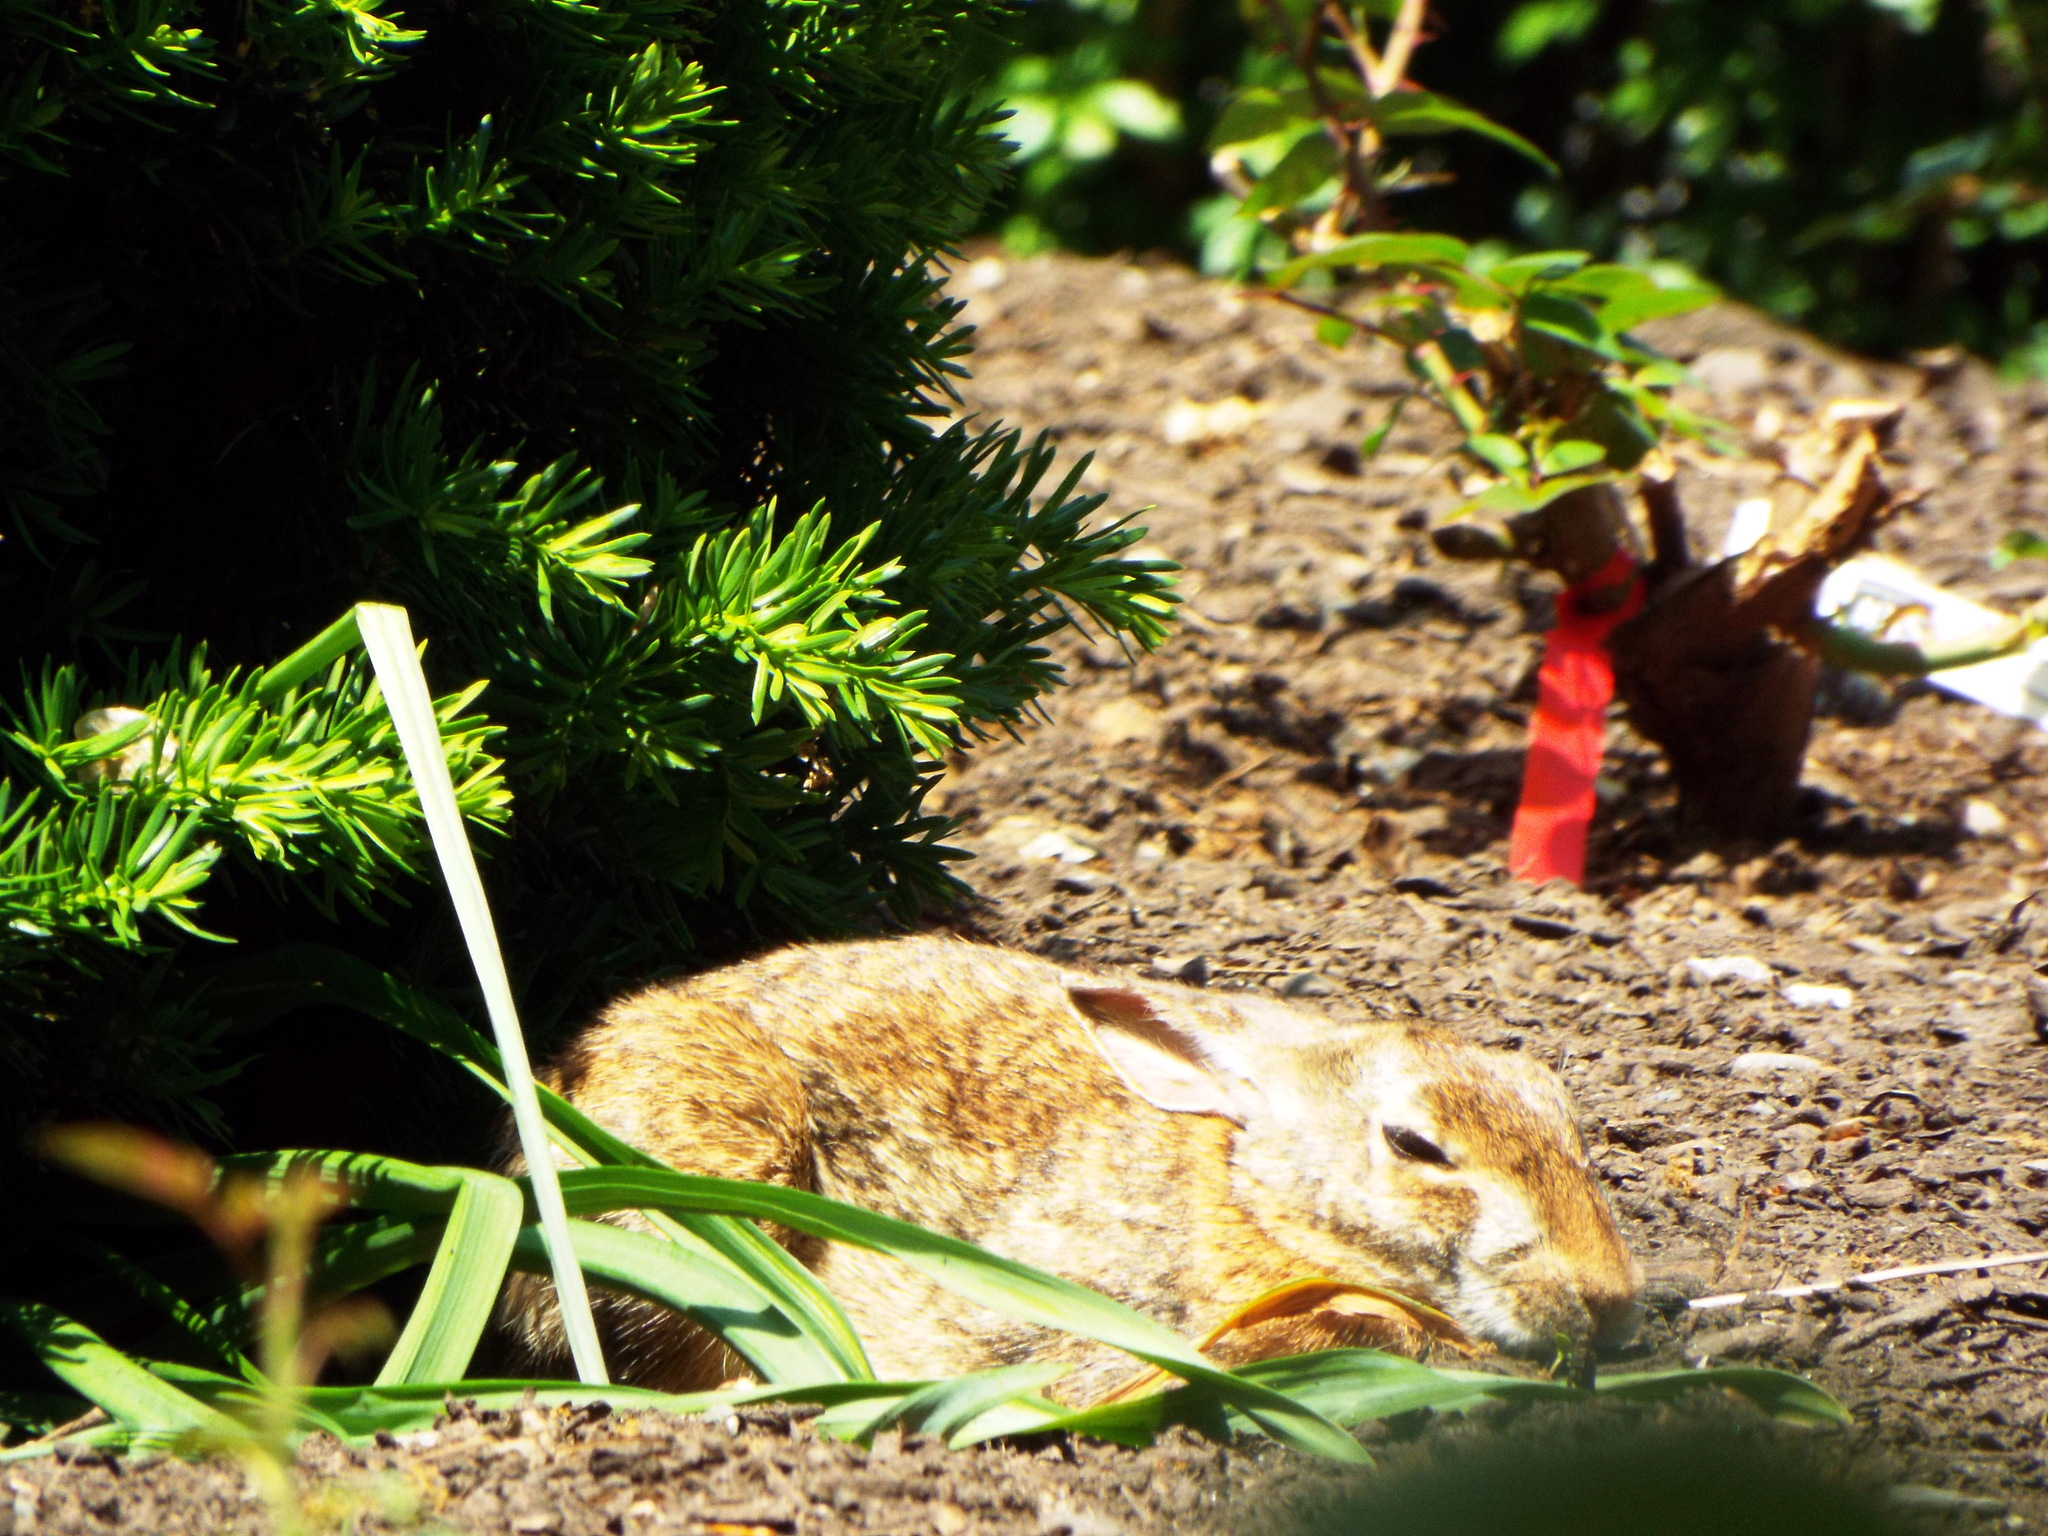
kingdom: Animalia
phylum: Chordata
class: Mammalia
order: Lagomorpha
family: Leporidae
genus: Sylvilagus
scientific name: Sylvilagus floridanus
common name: Eastern cottontail
